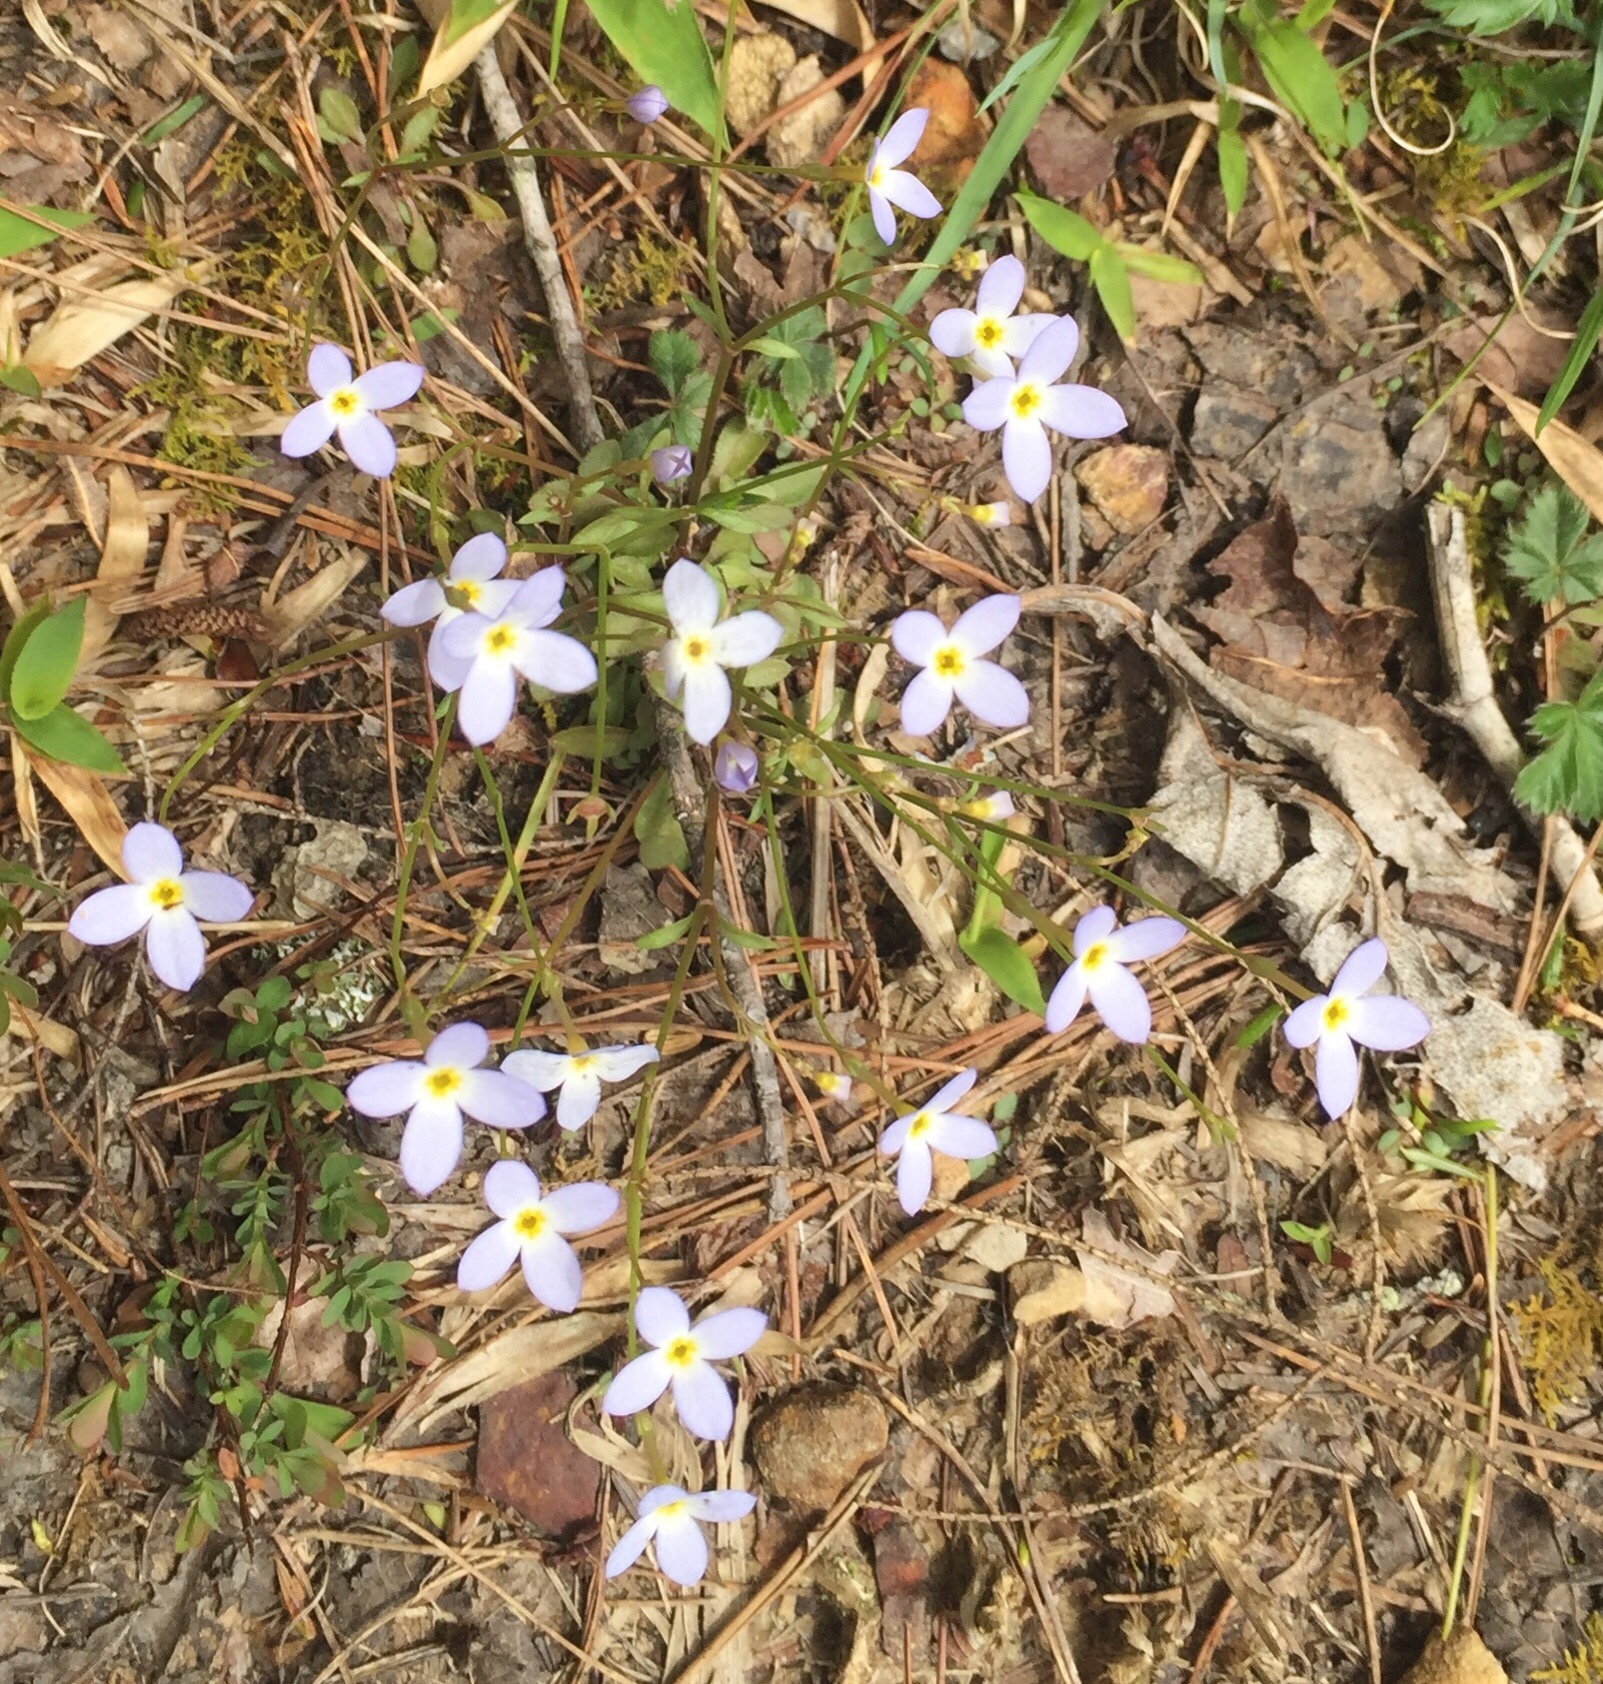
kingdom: Plantae
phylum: Tracheophyta
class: Magnoliopsida
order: Gentianales
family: Rubiaceae
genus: Houstonia
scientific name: Houstonia caerulea
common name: Bluets
